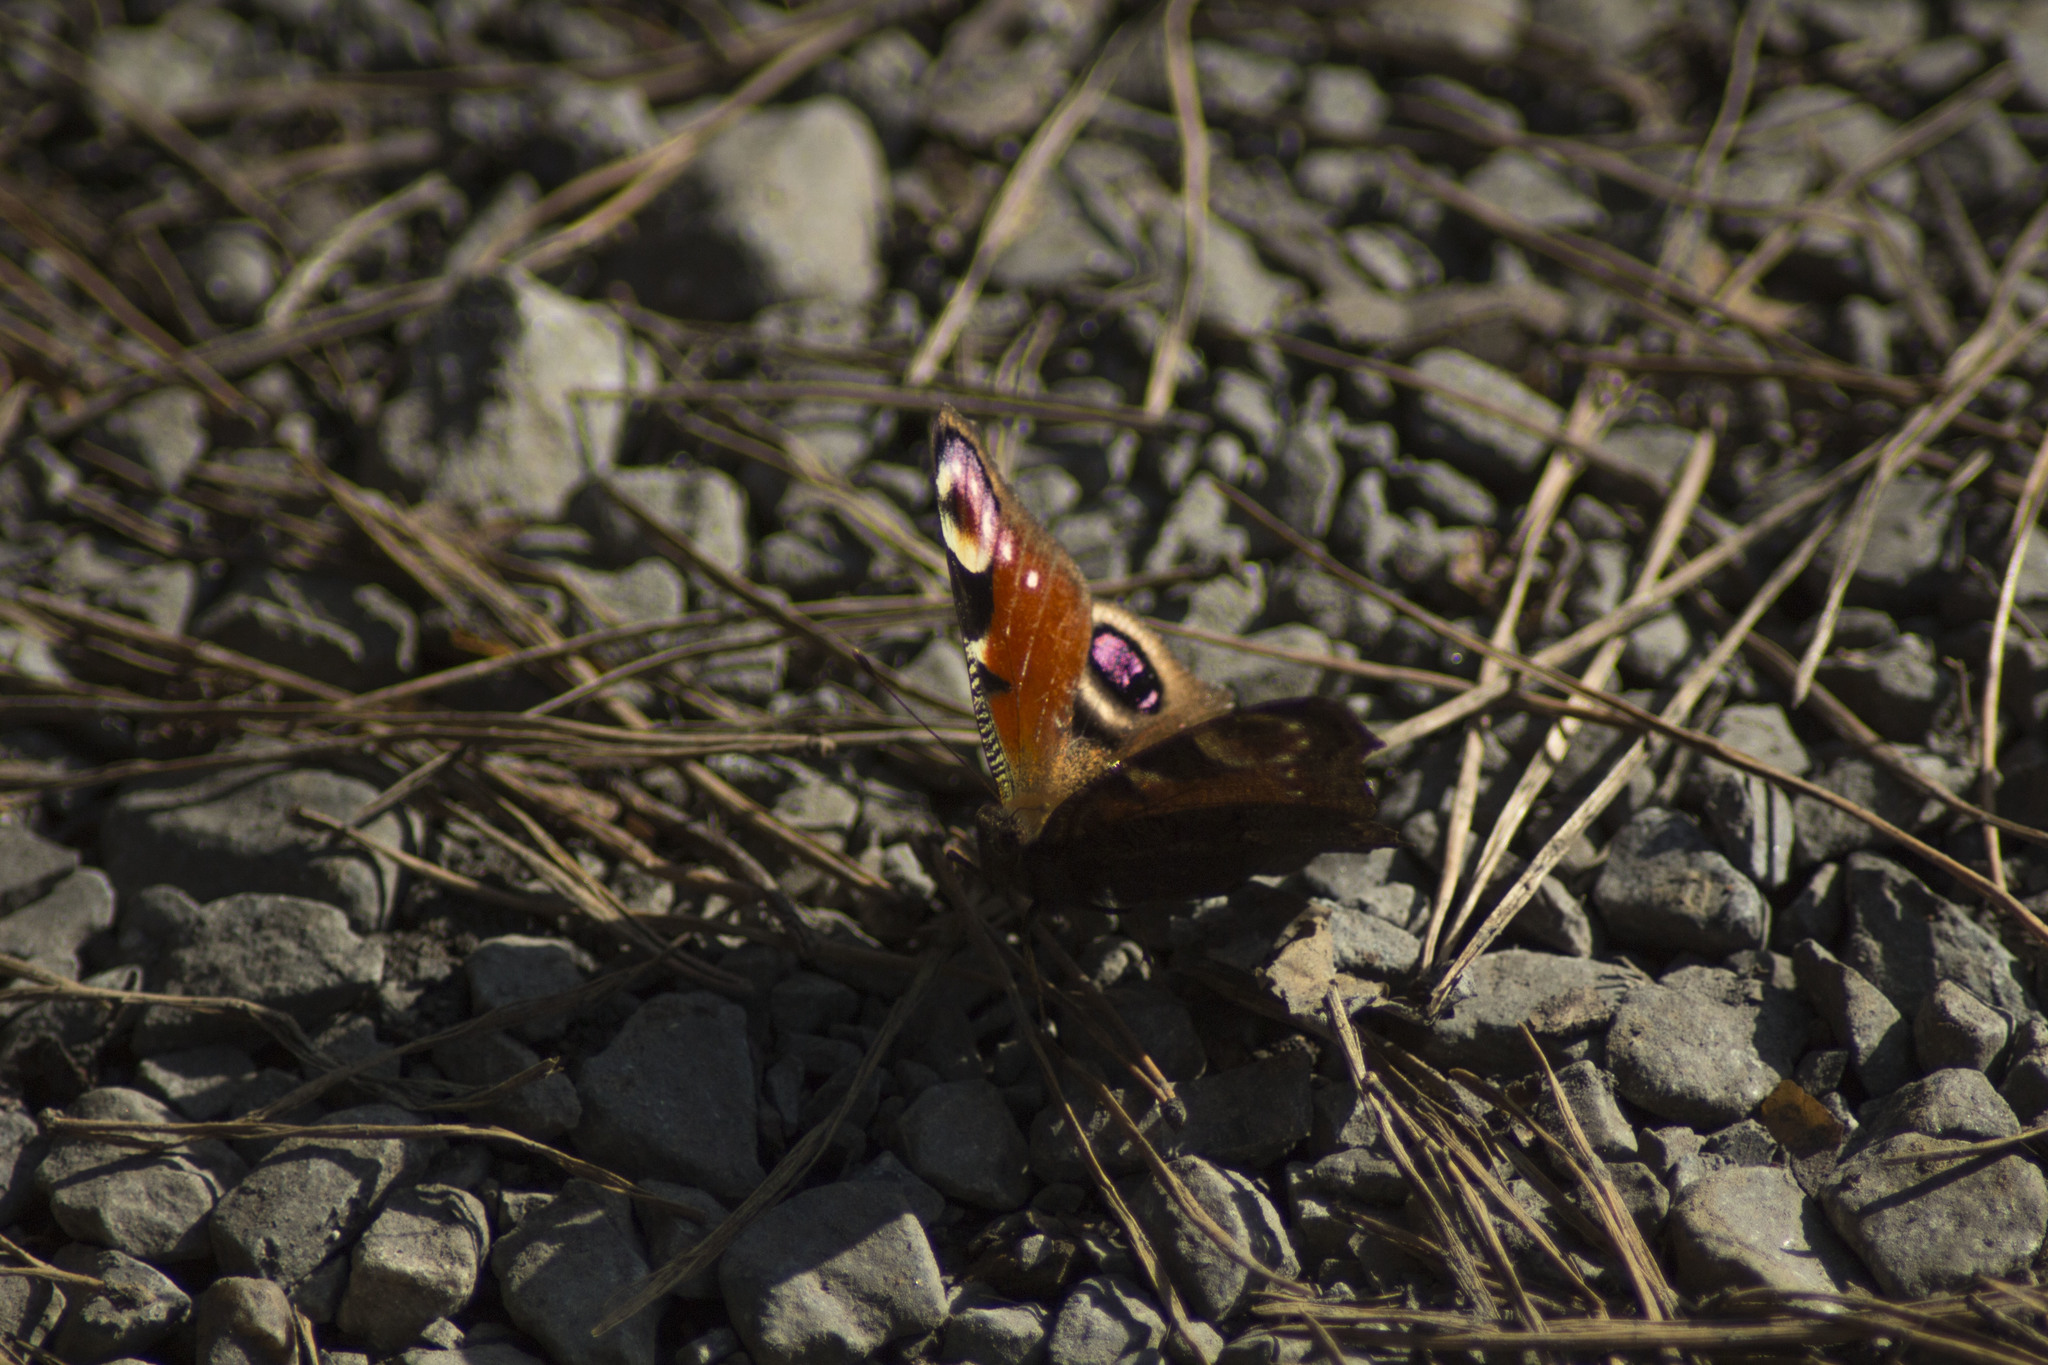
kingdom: Animalia
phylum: Arthropoda
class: Insecta
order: Lepidoptera
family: Nymphalidae
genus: Aglais
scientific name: Aglais io
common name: Peacock
